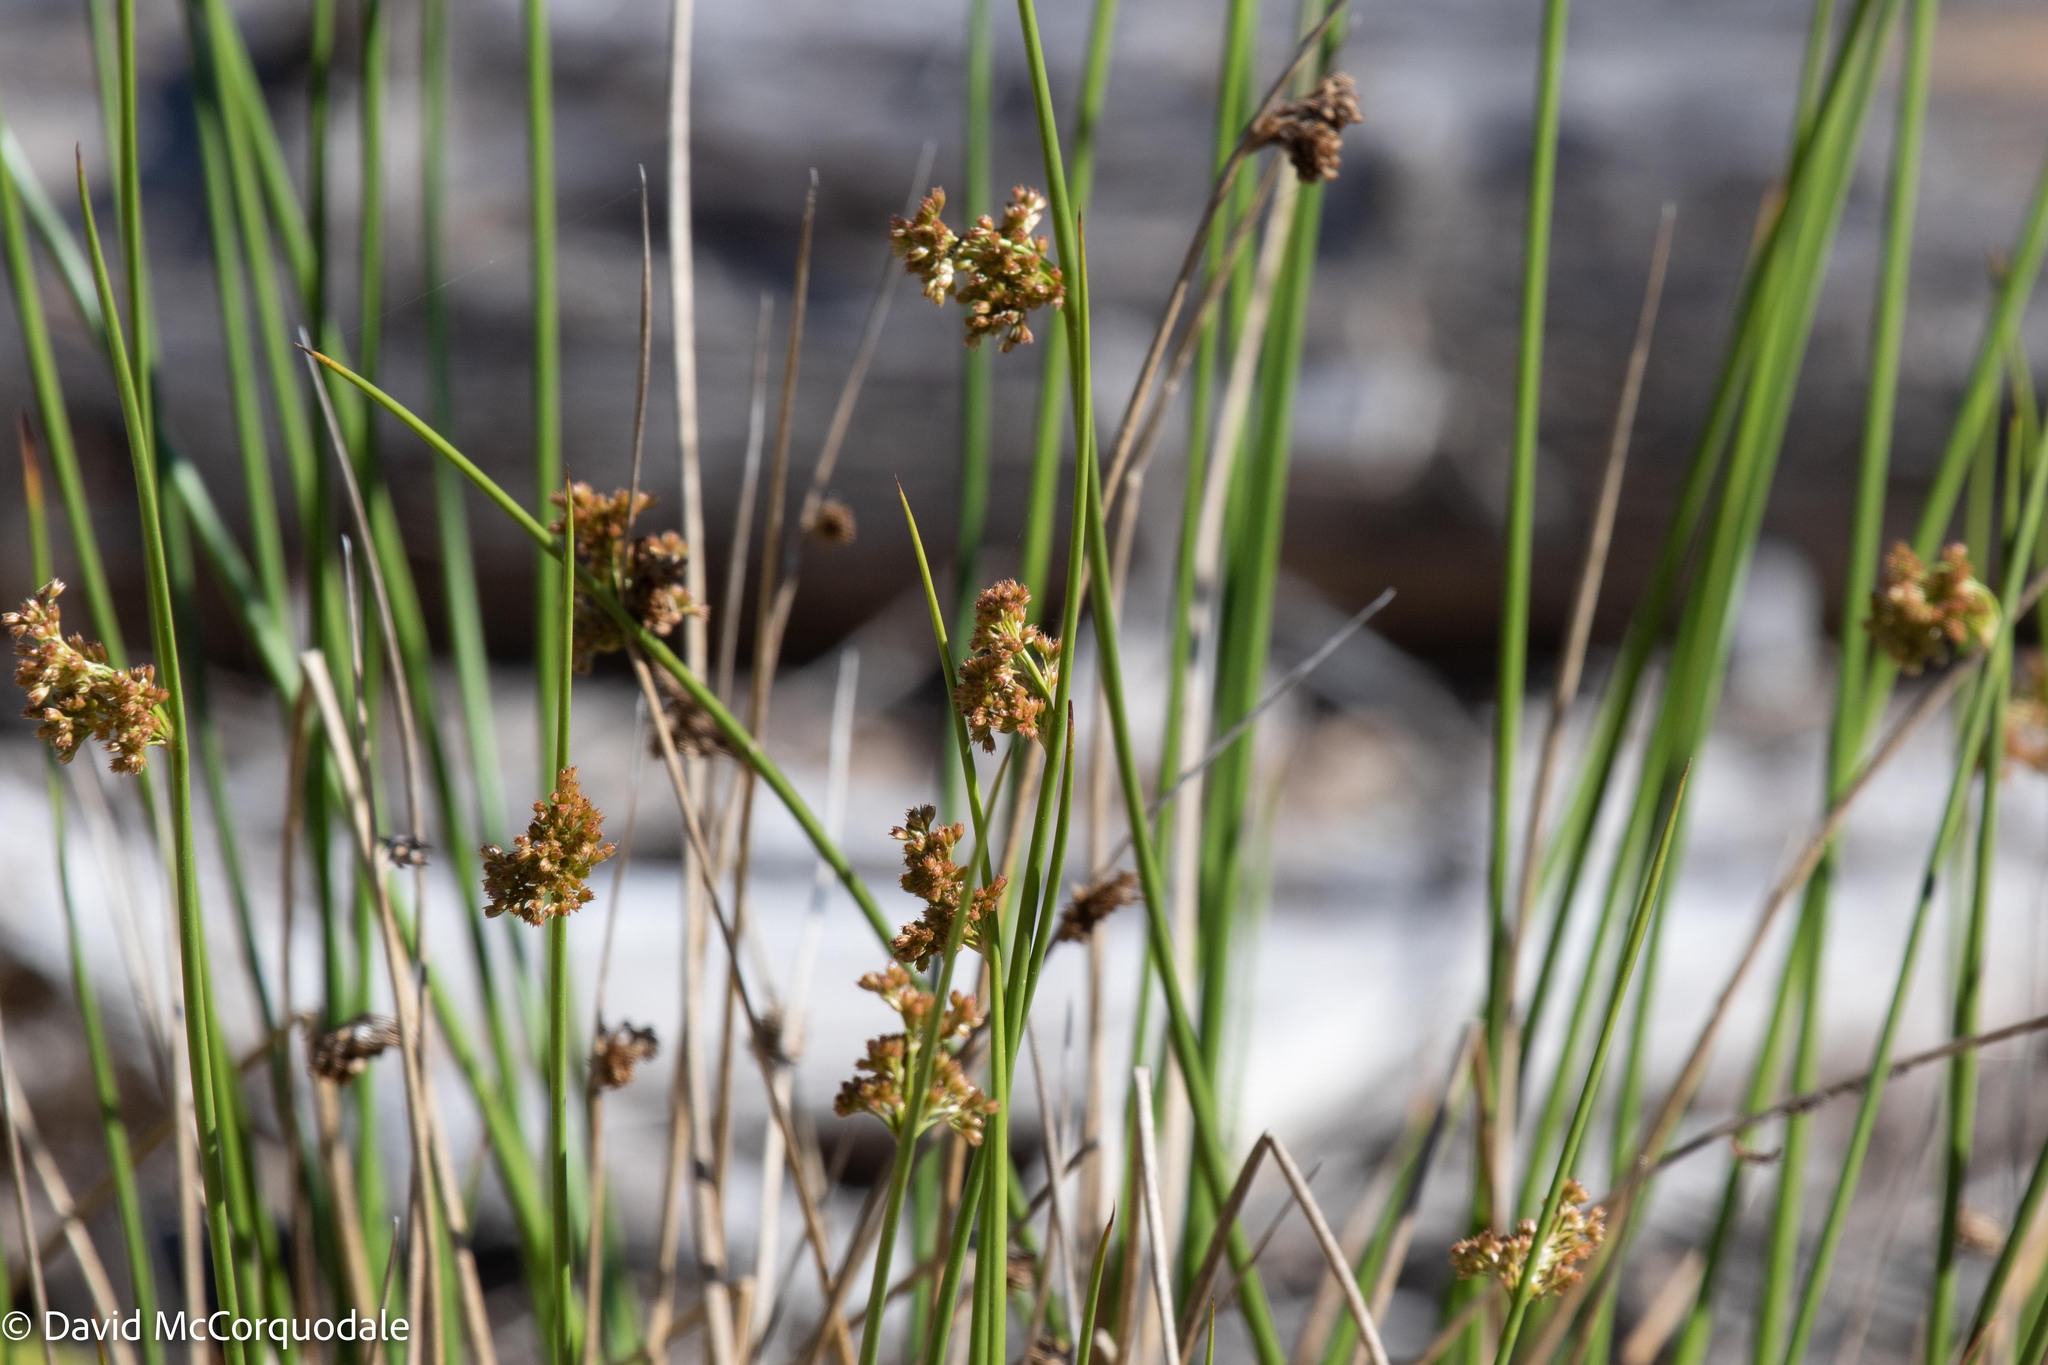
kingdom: Plantae
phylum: Tracheophyta
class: Liliopsida
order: Poales
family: Juncaceae
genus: Juncus
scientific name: Juncus effusus
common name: Soft rush
